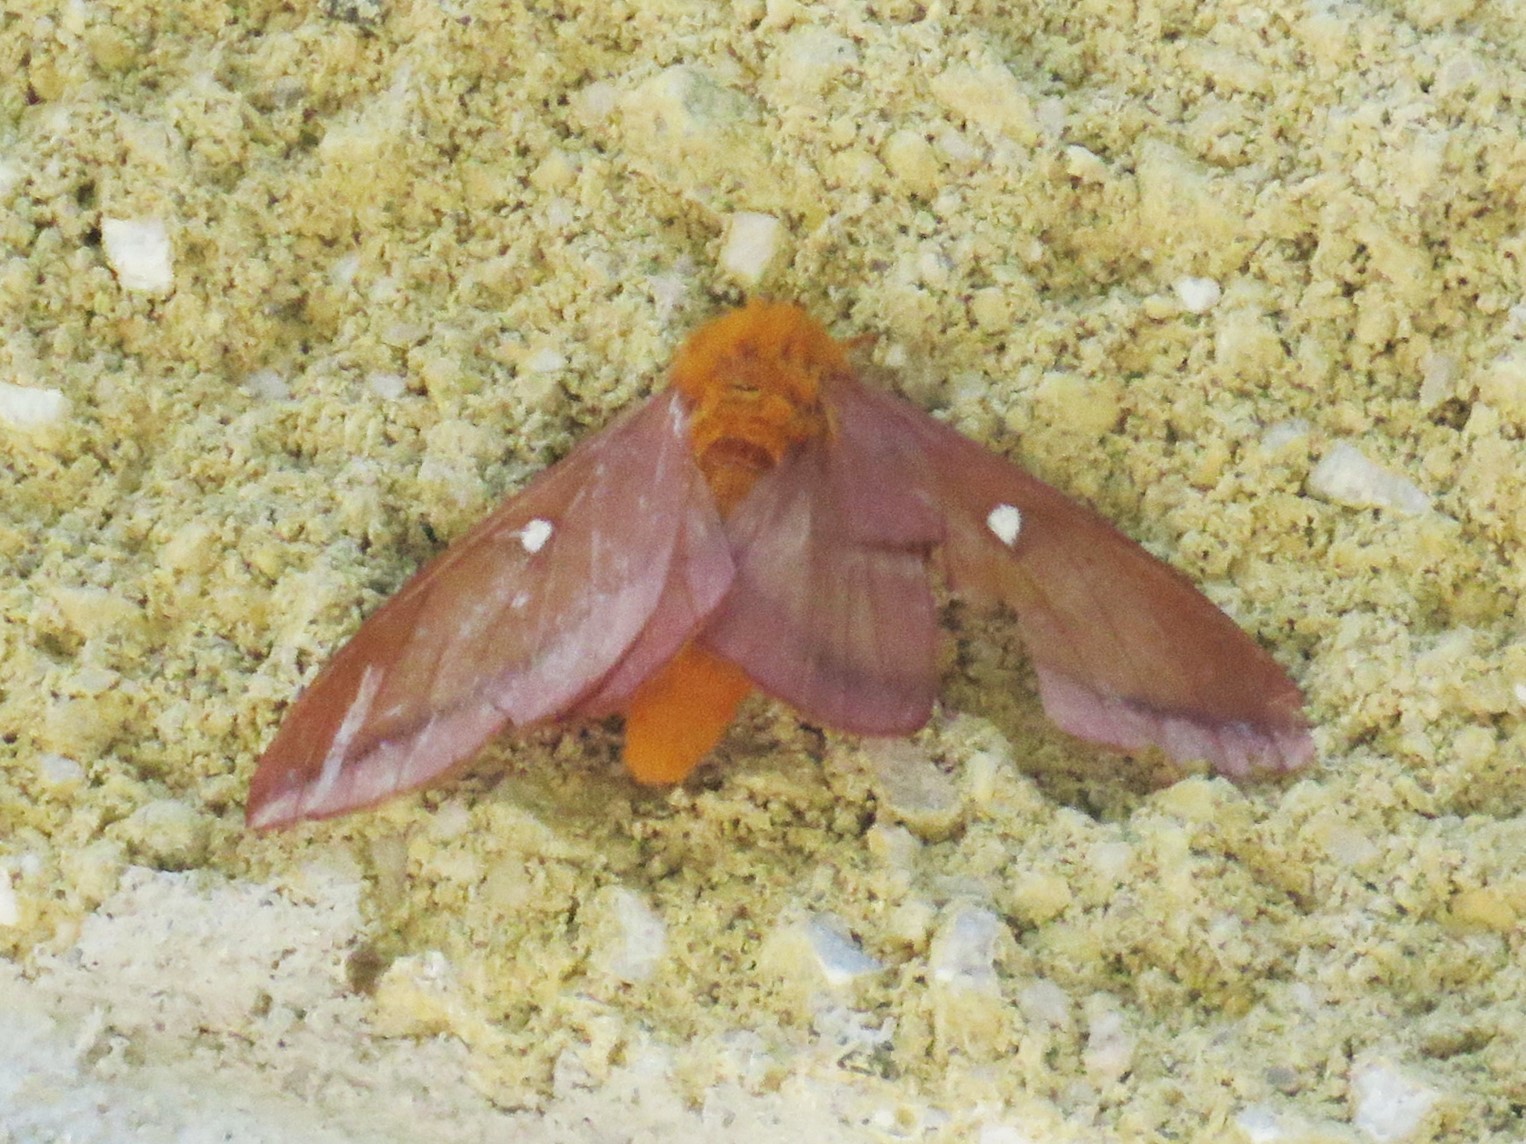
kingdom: Animalia
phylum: Arthropoda
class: Insecta
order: Lepidoptera
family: Saturniidae
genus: Anisota
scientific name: Anisota virginiensis
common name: Pink striped oakworm moth
